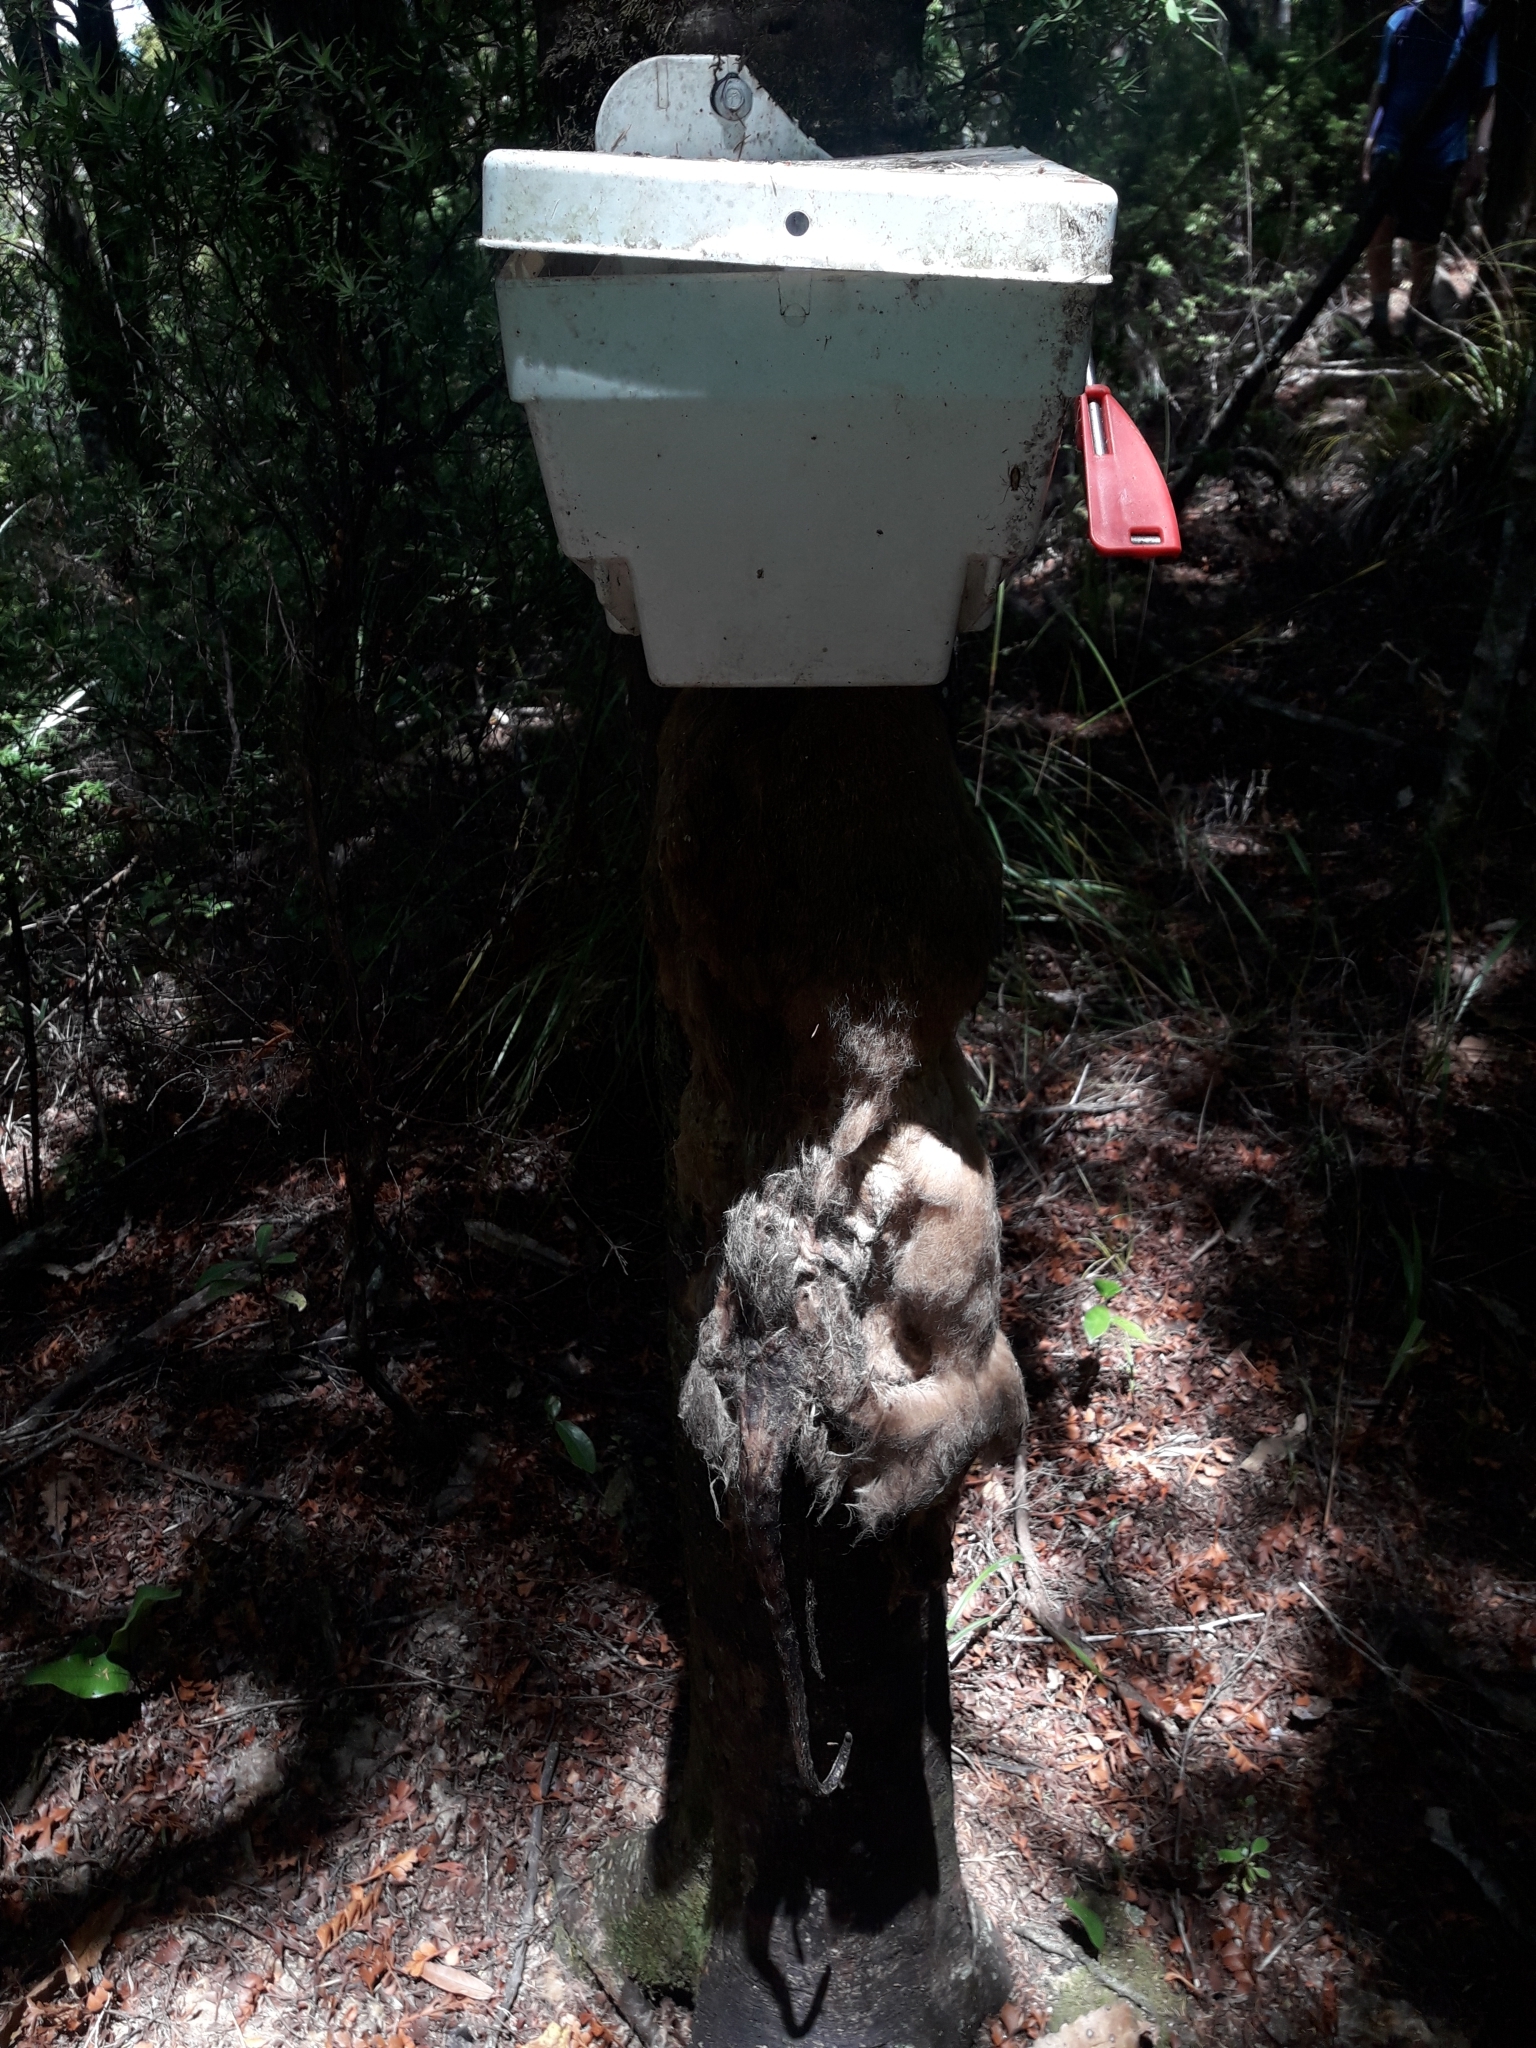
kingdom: Animalia
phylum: Chordata
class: Mammalia
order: Diprotodontia
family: Phalangeridae
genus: Trichosurus
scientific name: Trichosurus vulpecula
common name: Common brushtail
